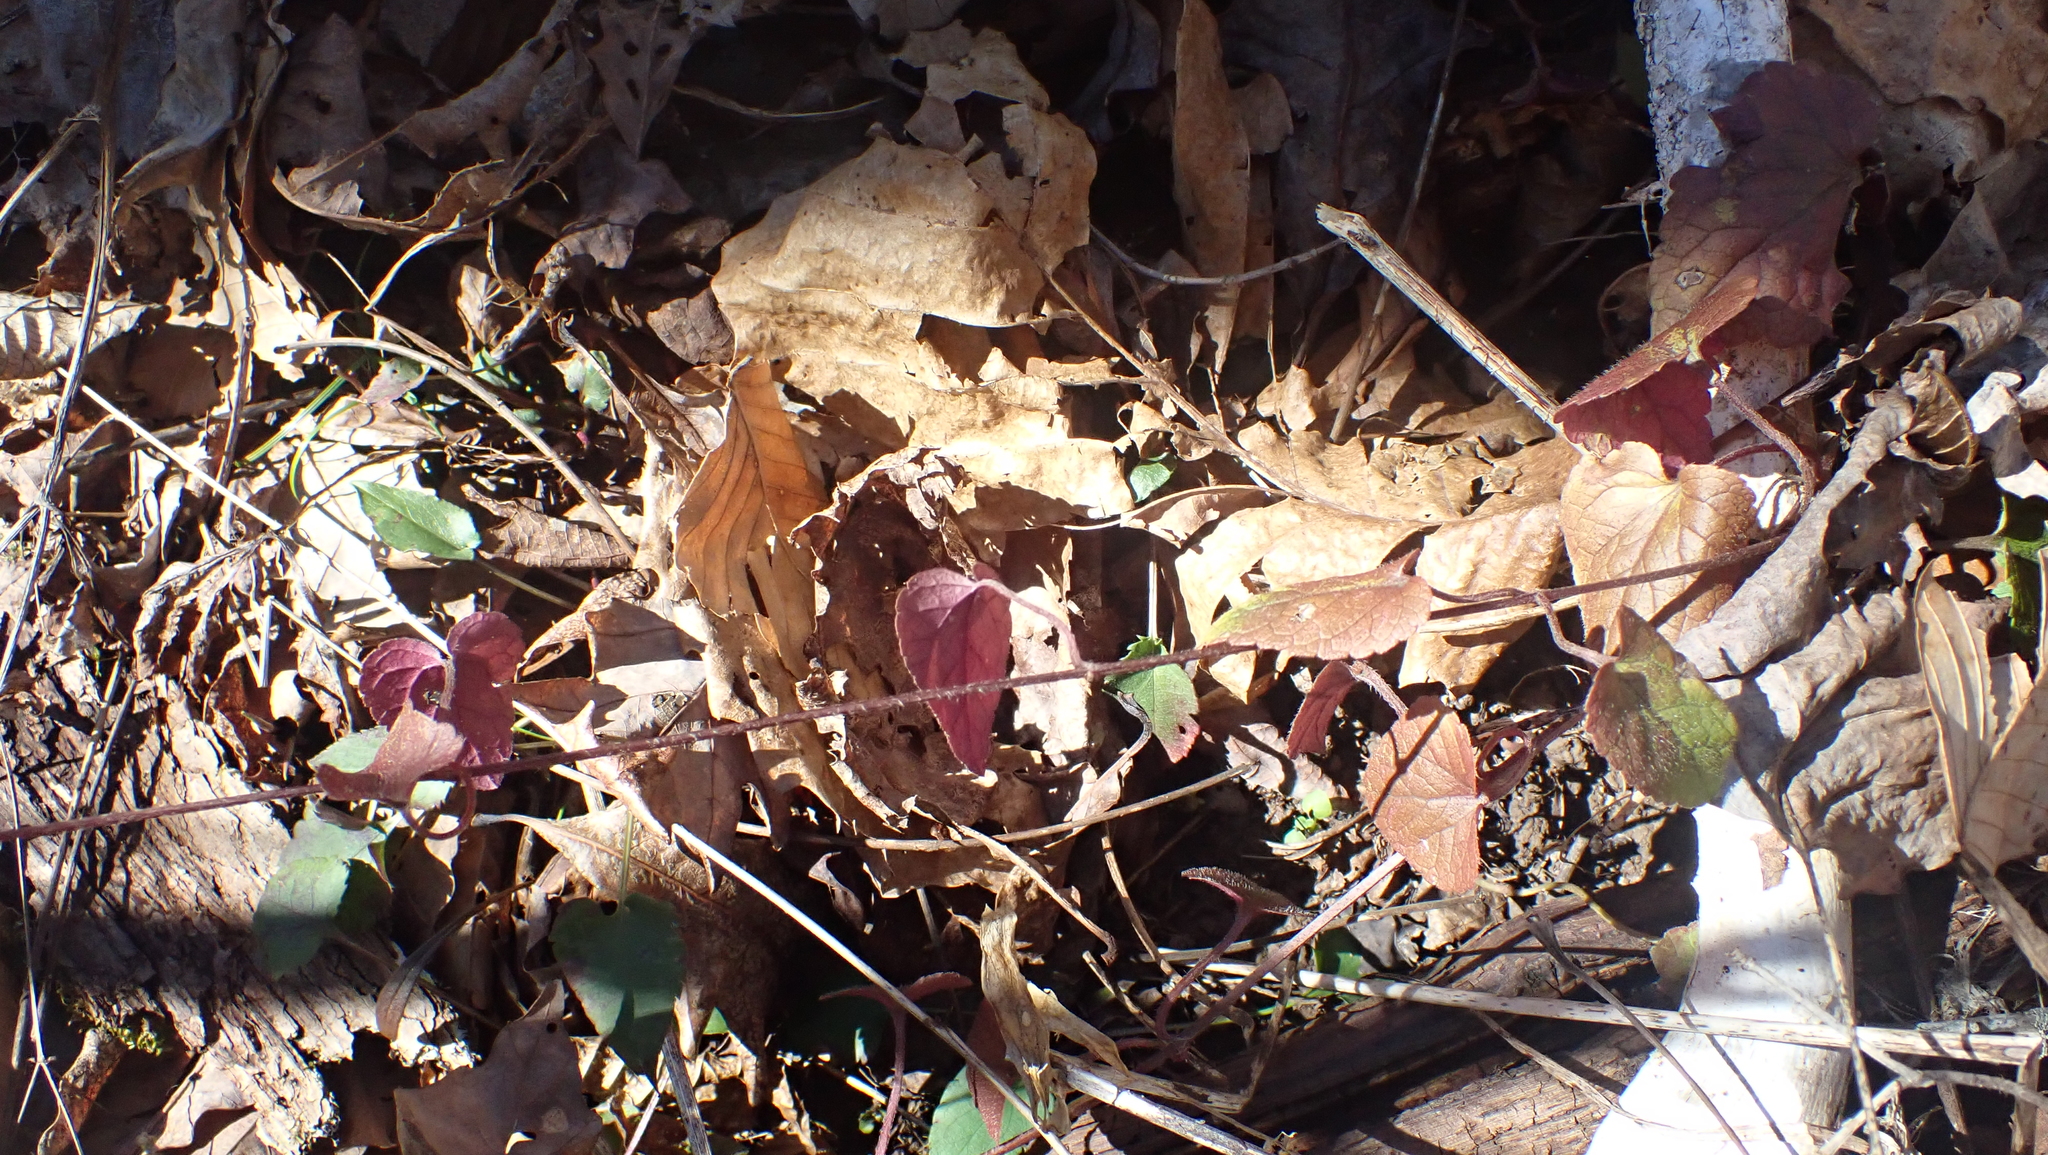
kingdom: Plantae
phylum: Tracheophyta
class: Magnoliopsida
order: Lamiales
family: Lamiaceae
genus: Meehania
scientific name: Meehania cordata
